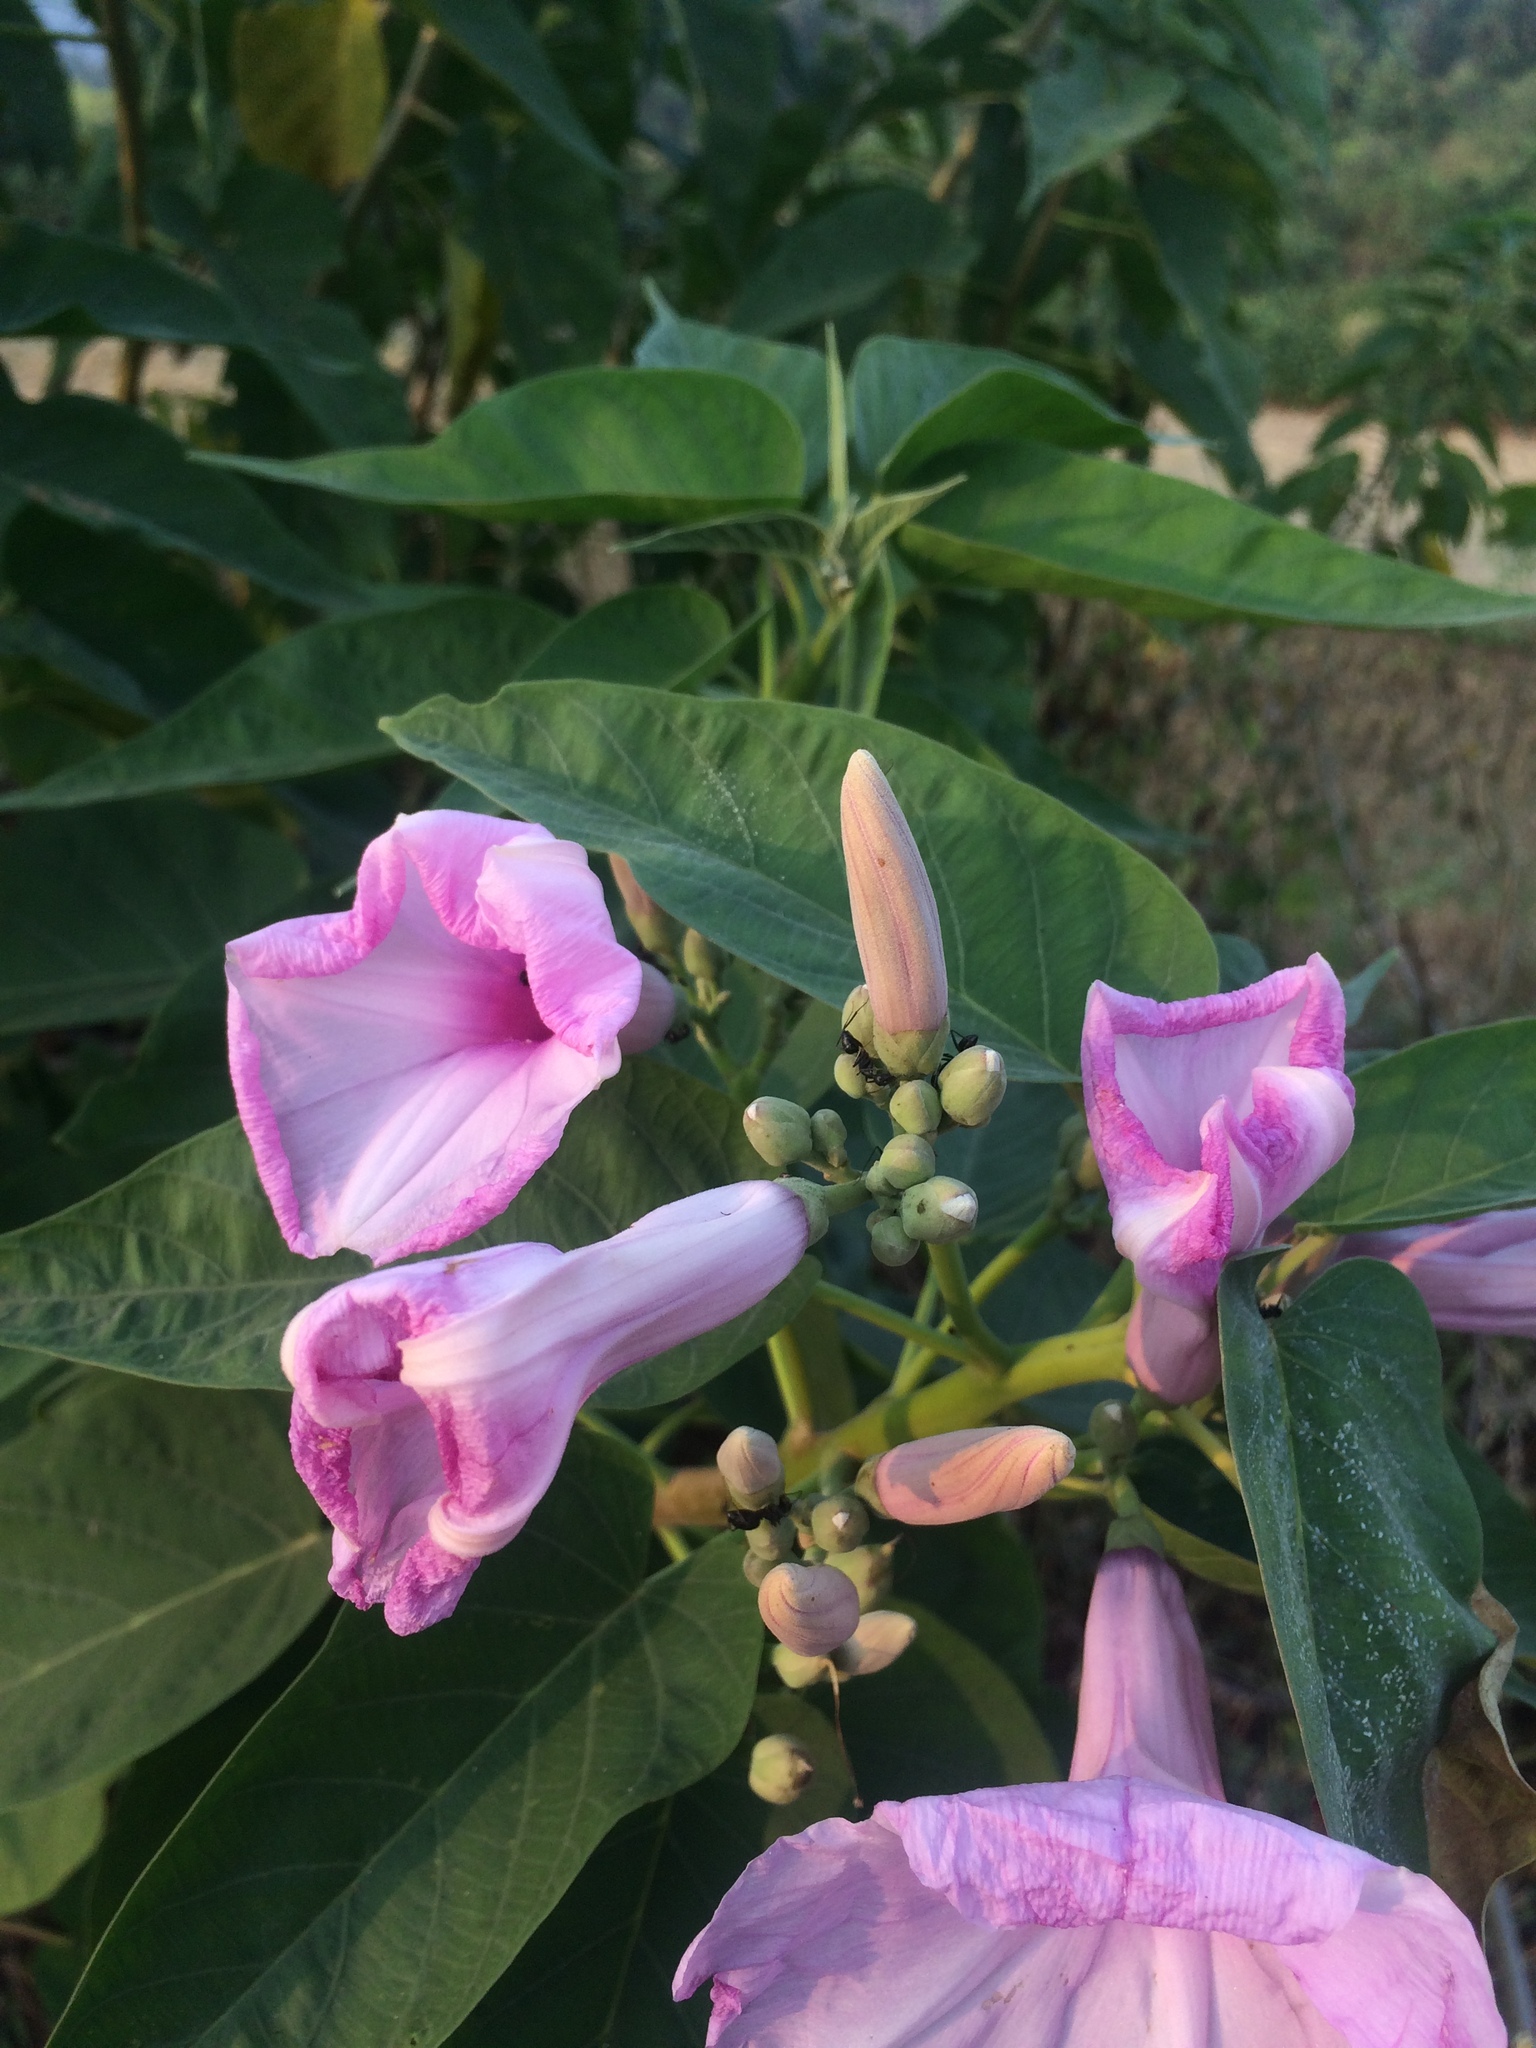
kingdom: Plantae
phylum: Tracheophyta
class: Magnoliopsida
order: Solanales
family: Convolvulaceae
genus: Ipomoea
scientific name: Ipomoea carnea
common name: Morning-glory
